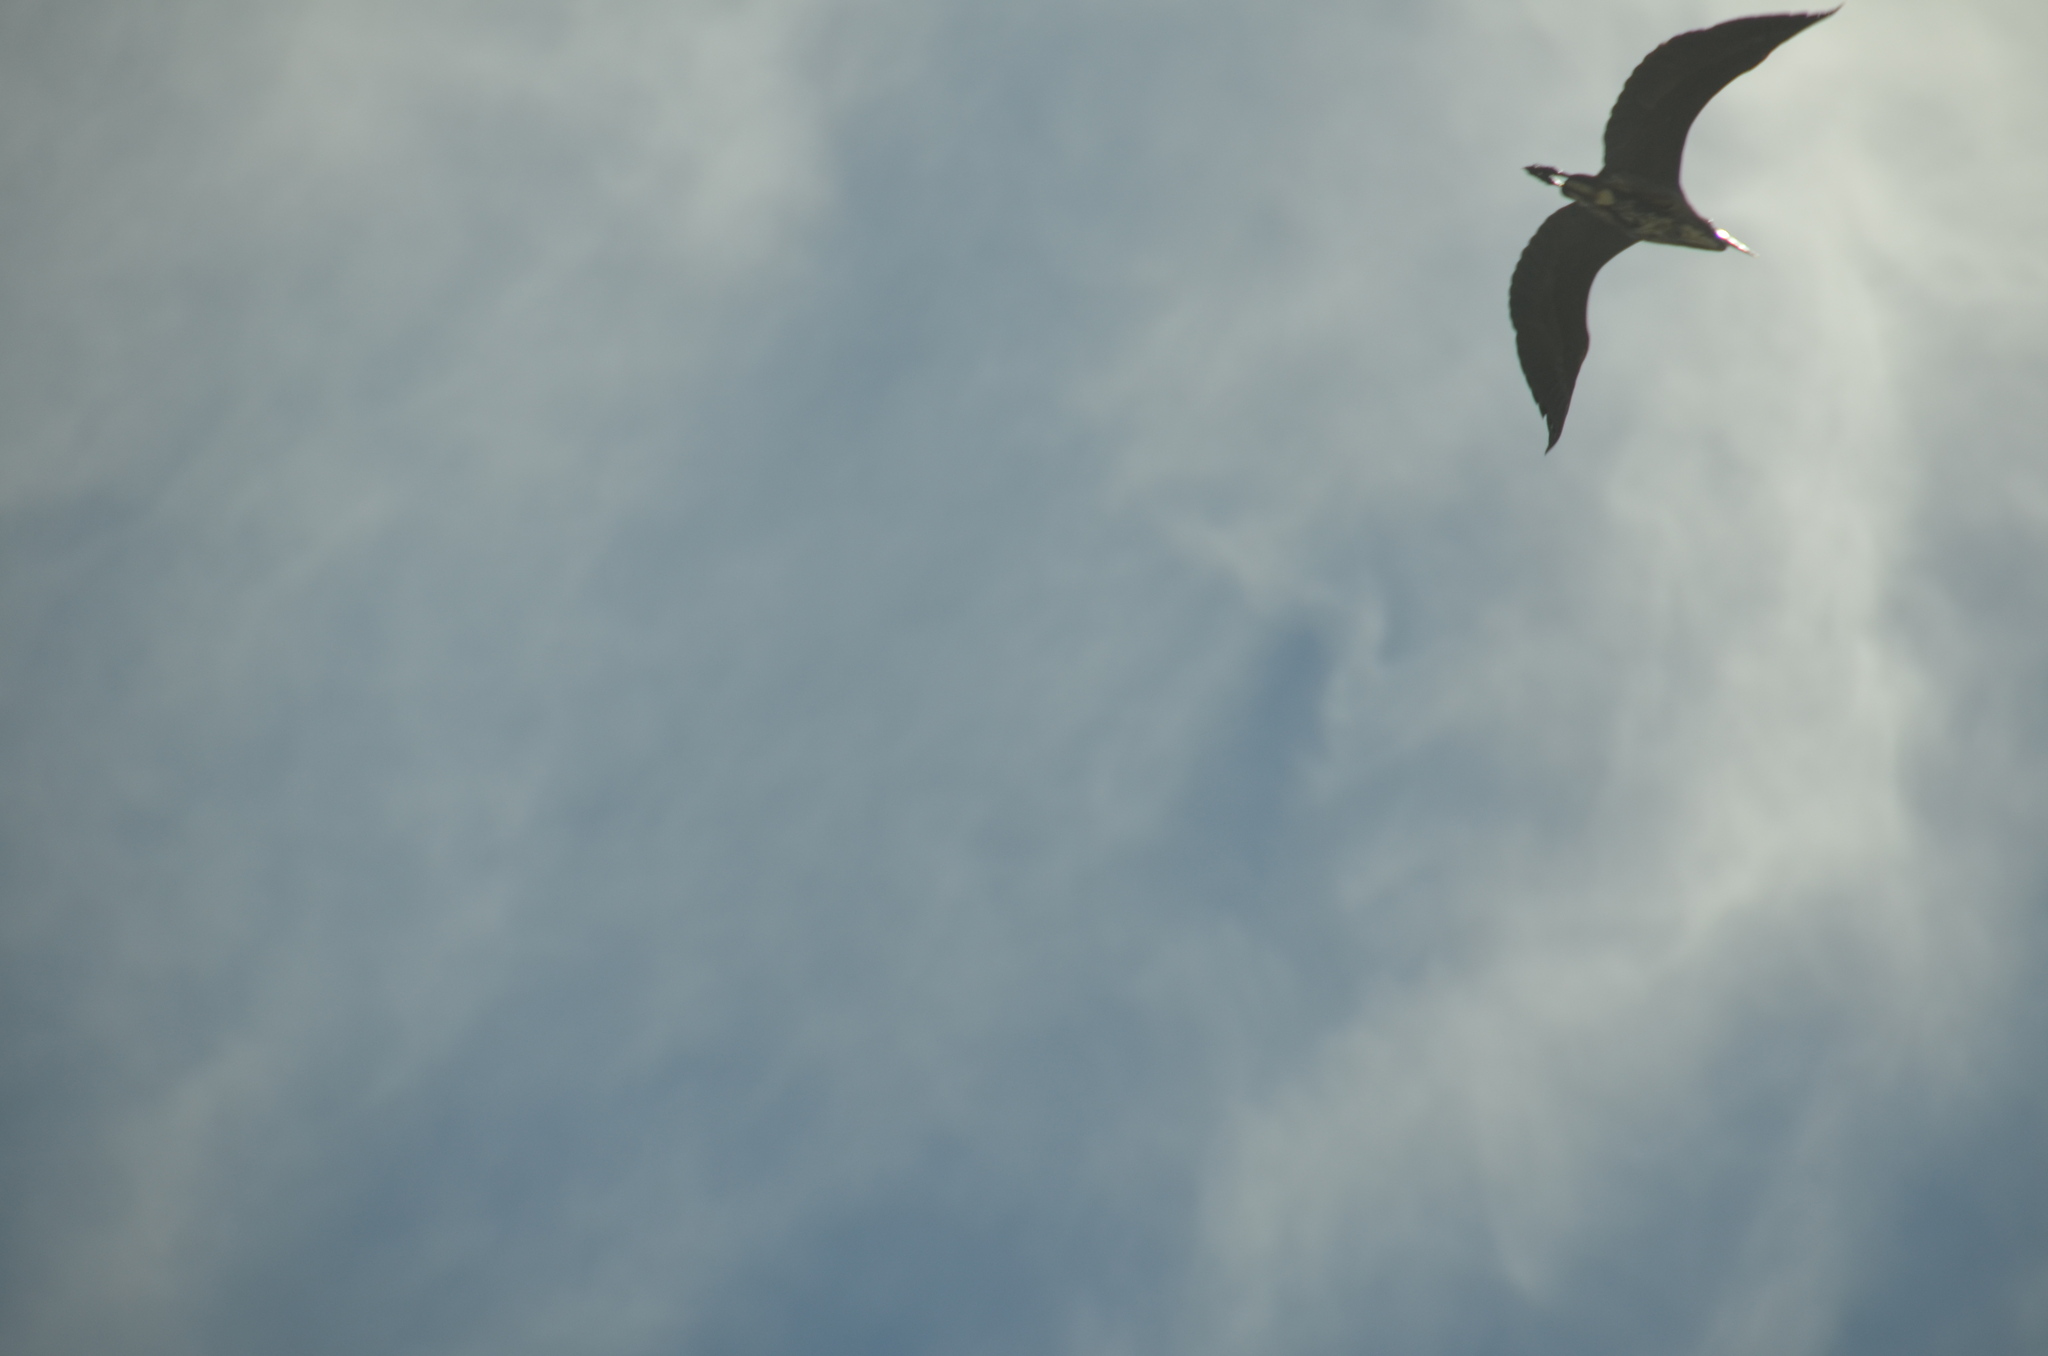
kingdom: Animalia
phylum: Chordata
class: Aves
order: Pelecaniformes
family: Ardeidae
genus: Ardea
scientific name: Ardea herodias
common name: Great blue heron
